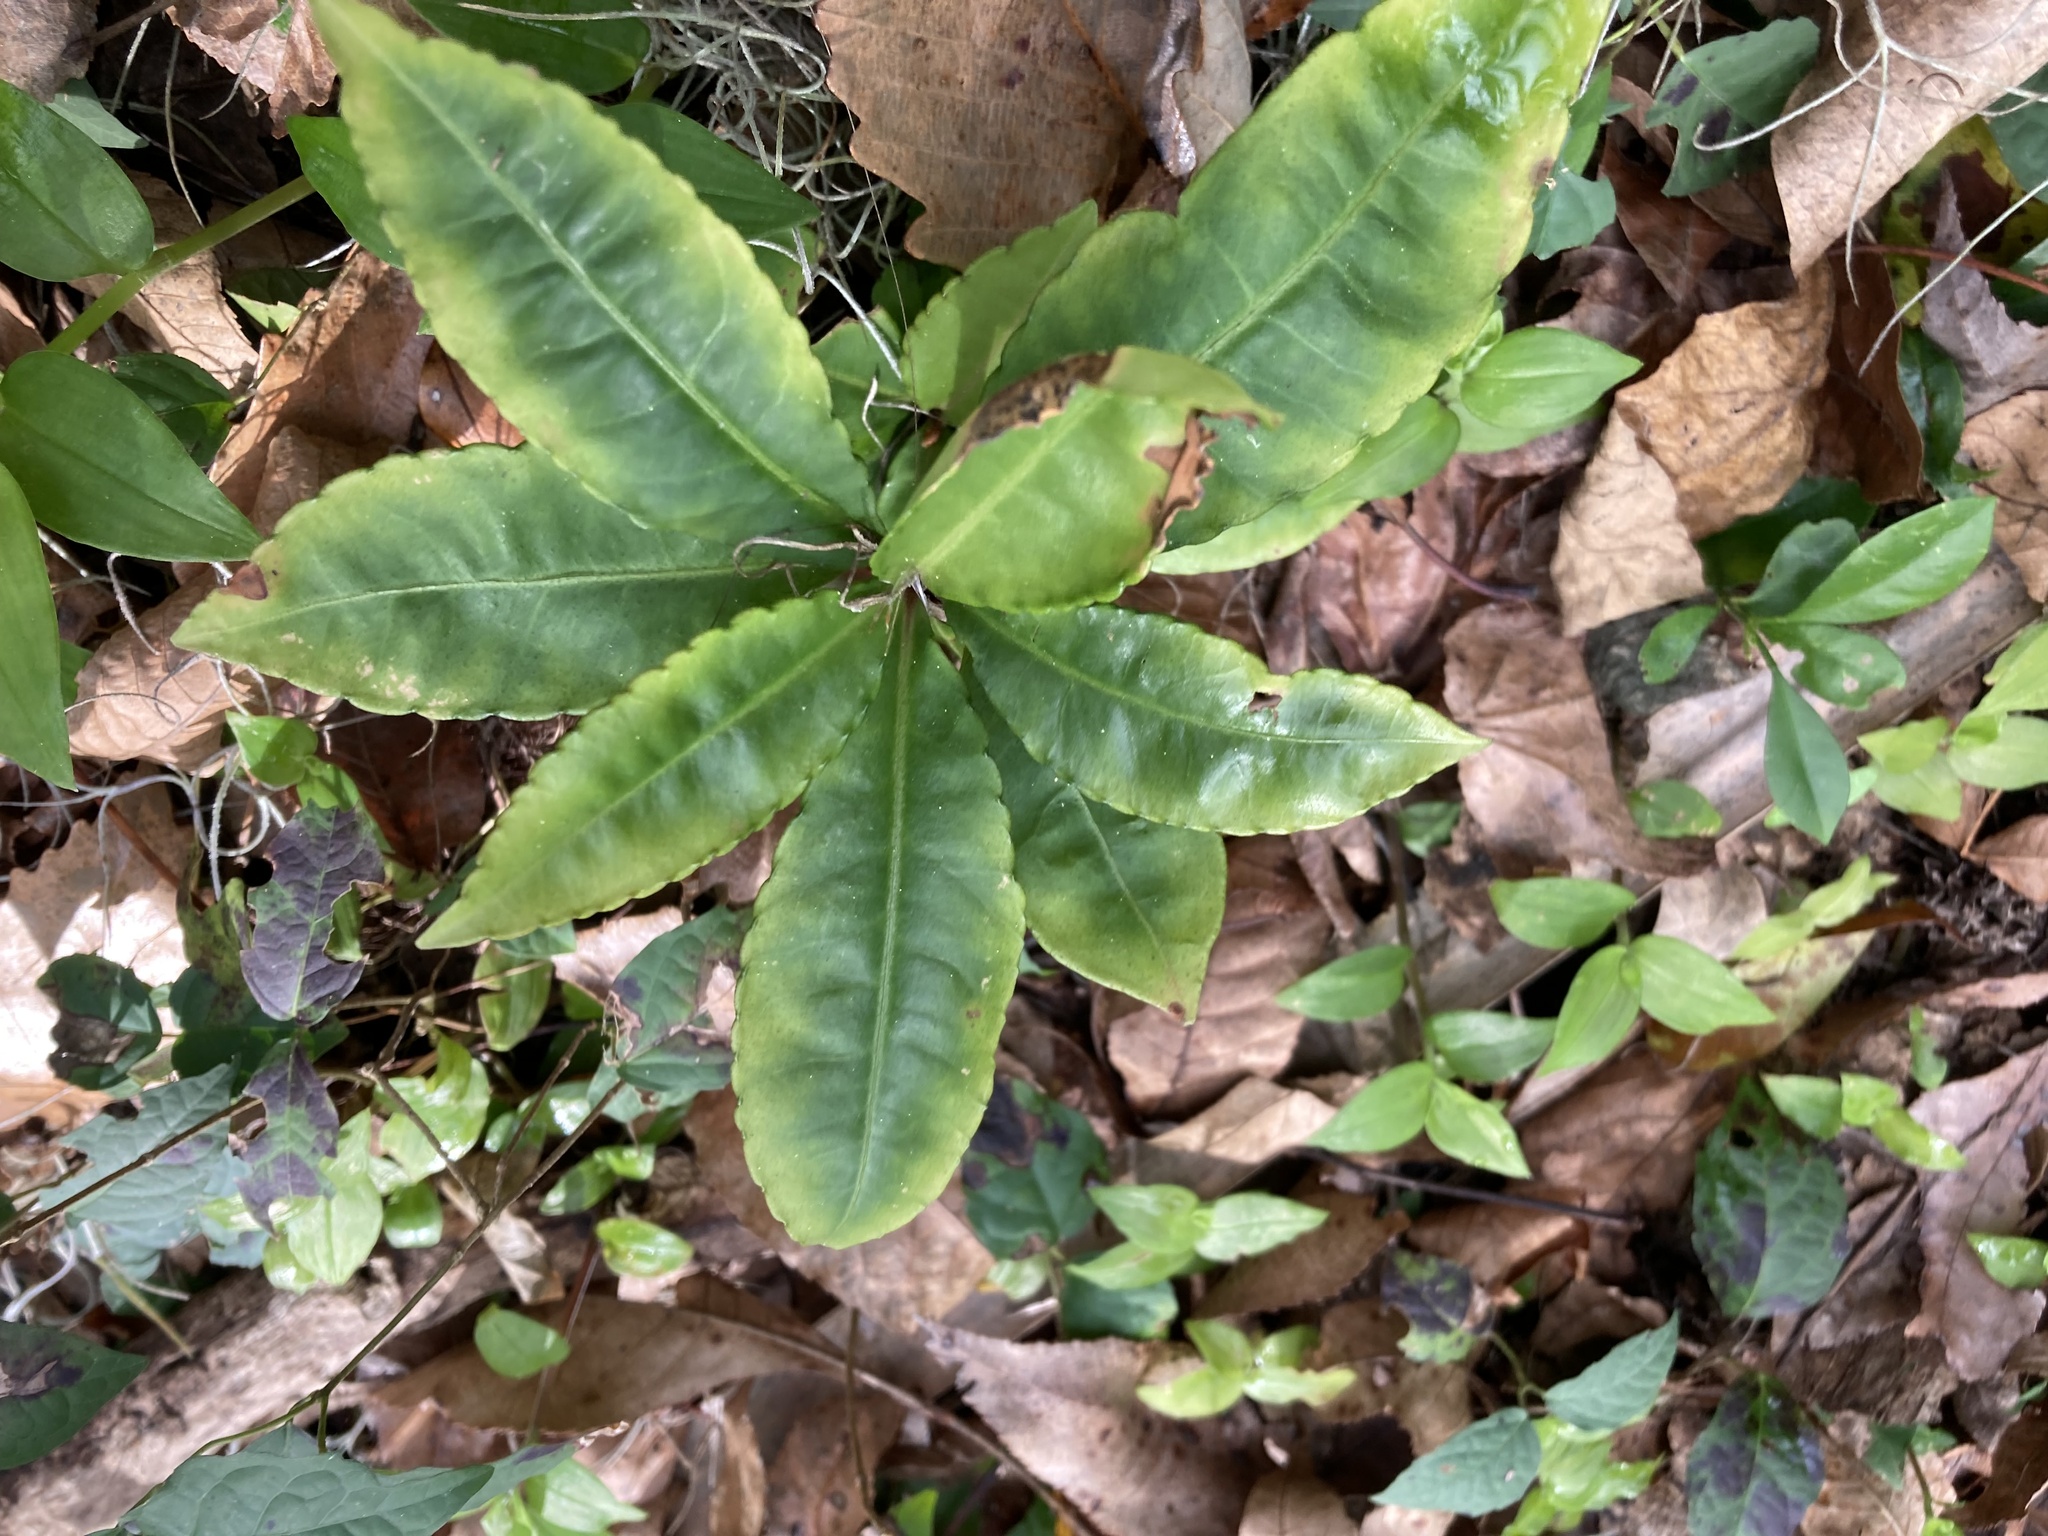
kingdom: Plantae
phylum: Tracheophyta
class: Magnoliopsida
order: Ericales
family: Primulaceae
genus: Ardisia
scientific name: Ardisia crenata
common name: Hen's eyes
